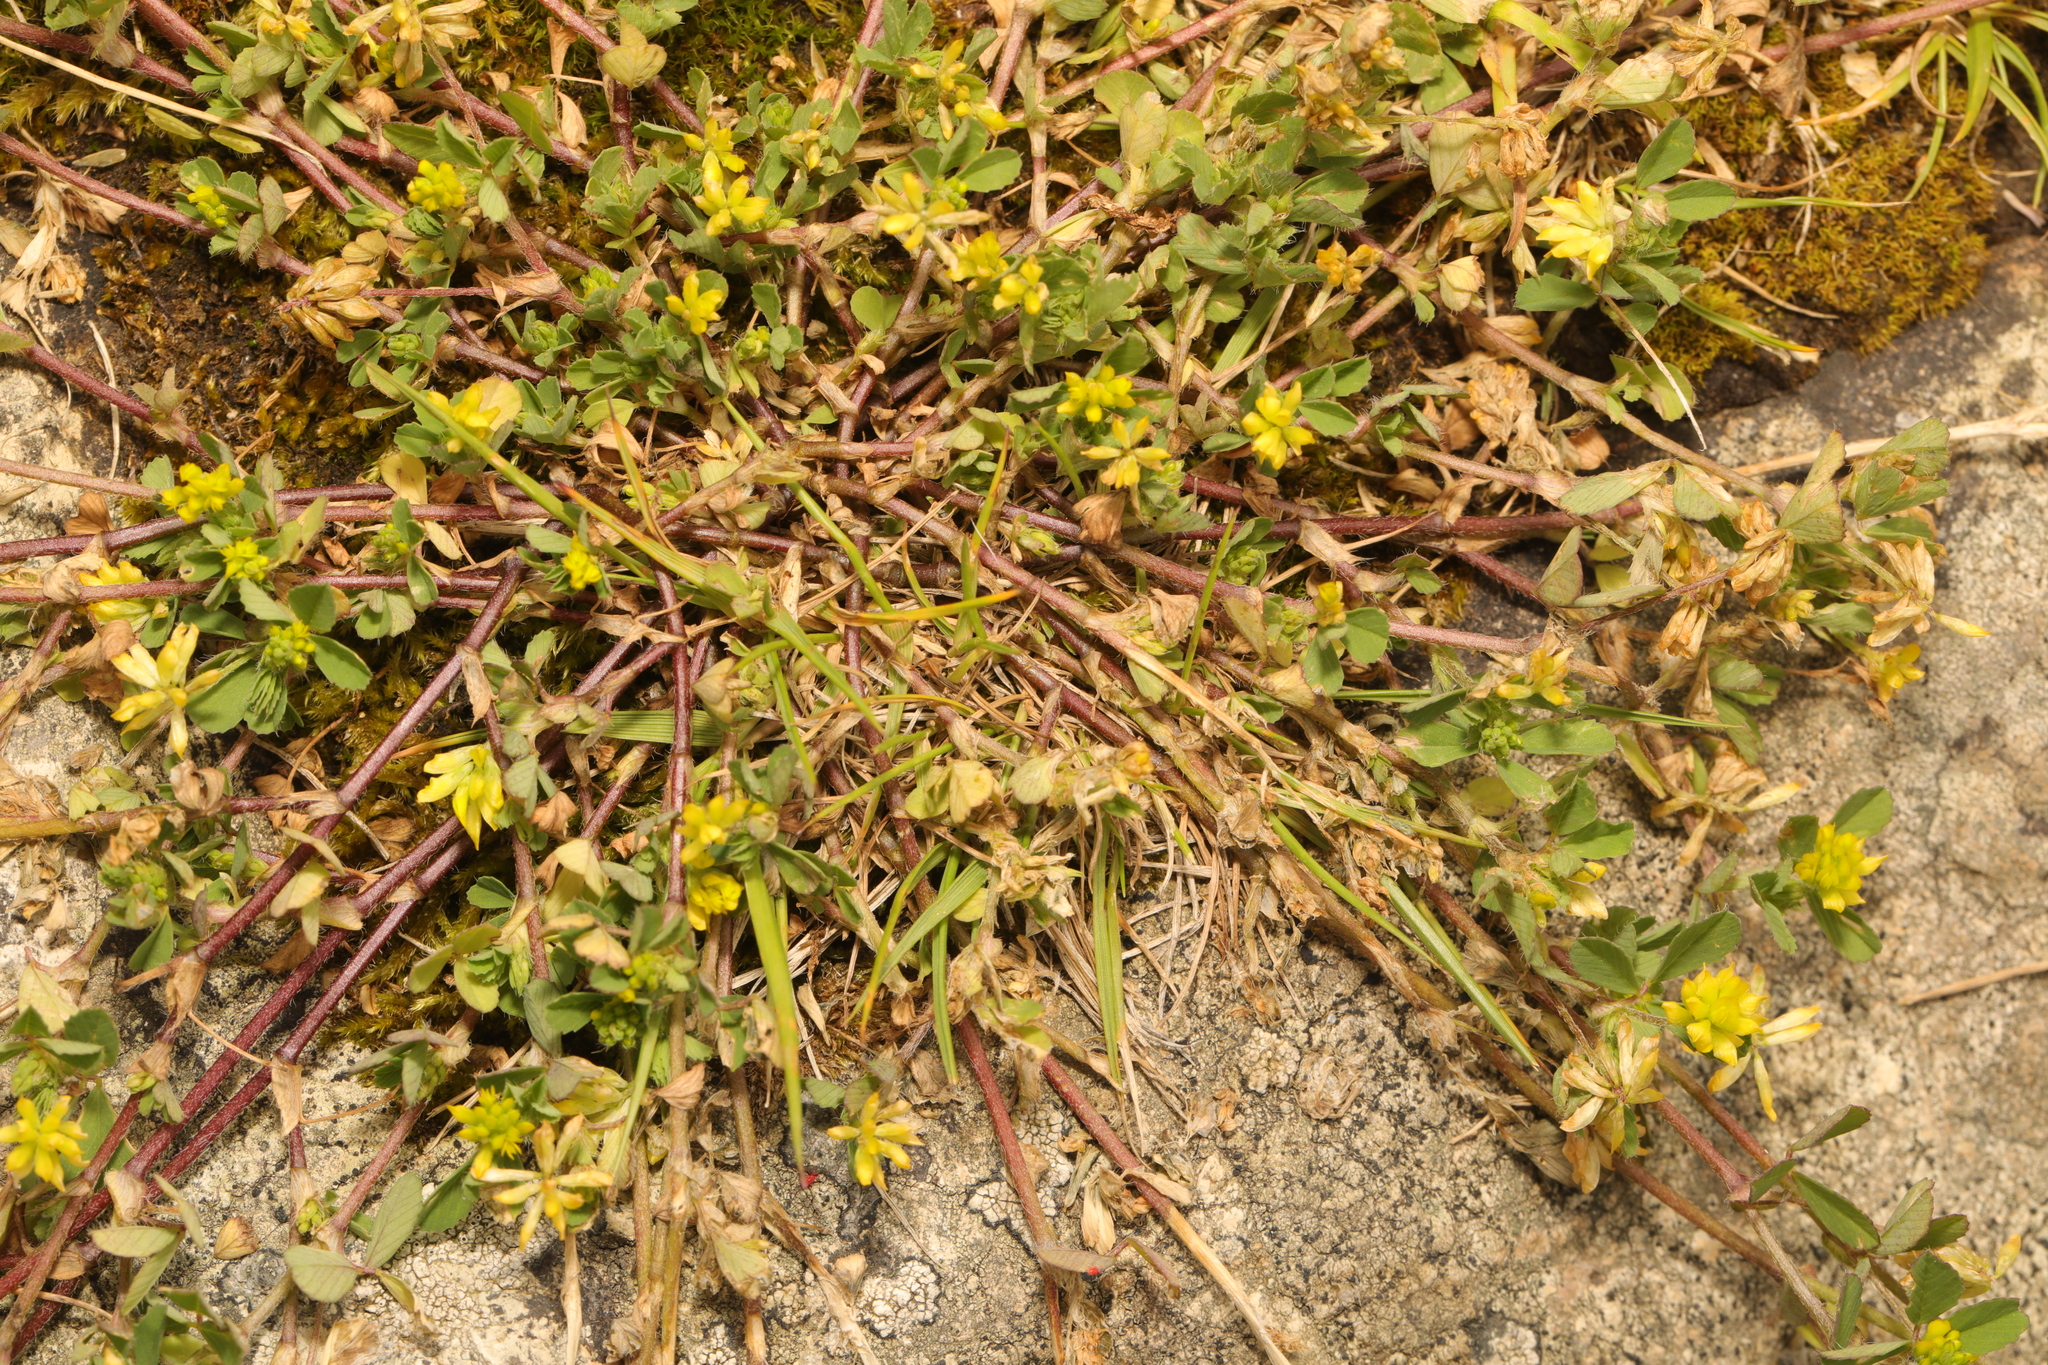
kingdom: Plantae
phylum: Tracheophyta
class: Magnoliopsida
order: Fabales
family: Fabaceae
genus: Trifolium
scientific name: Trifolium dubium
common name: Suckling clover
